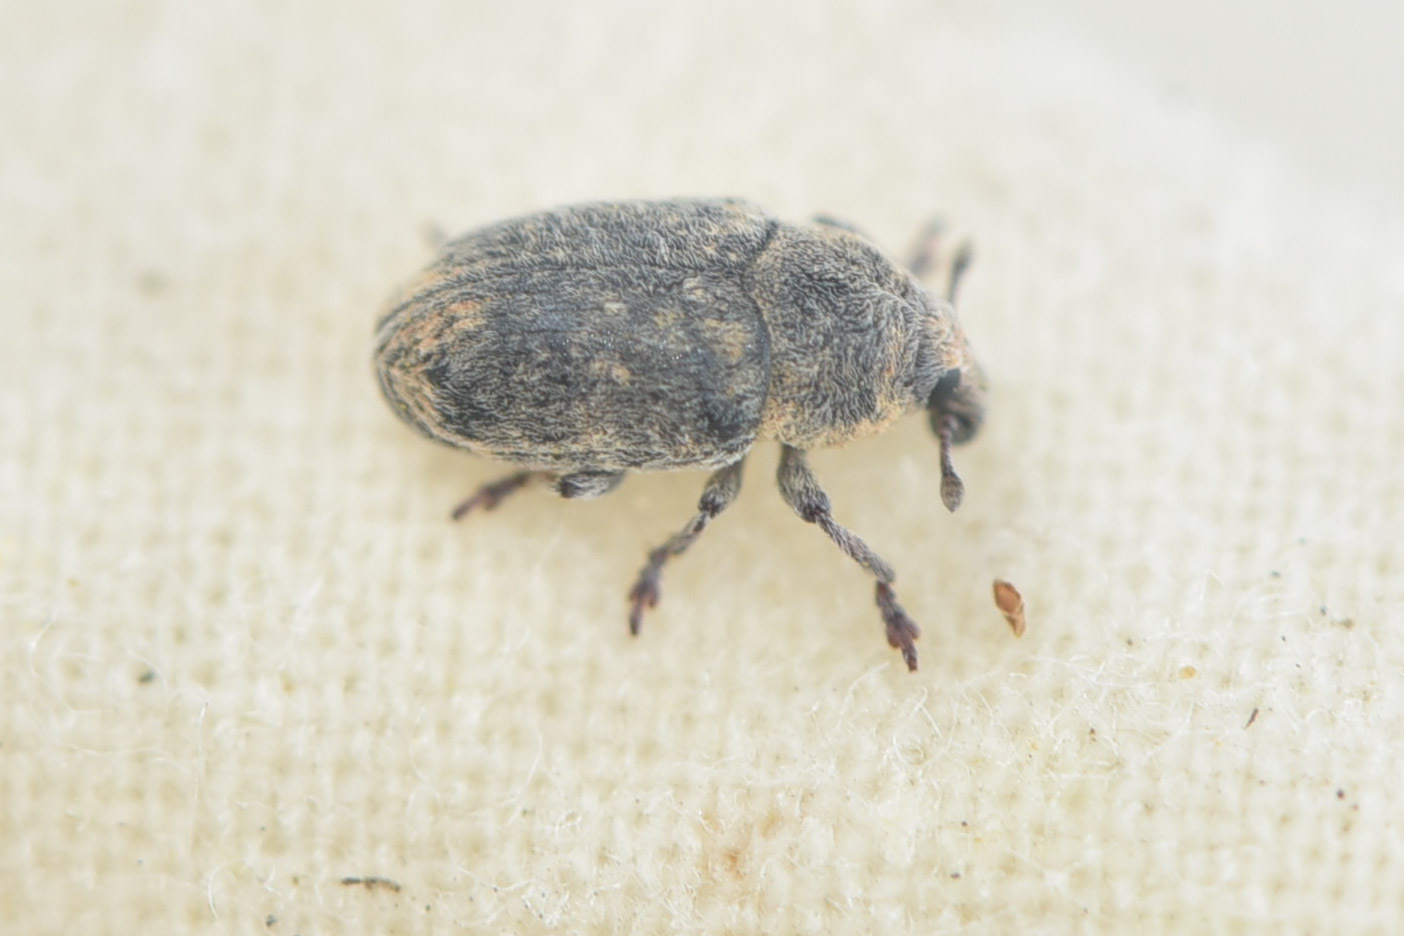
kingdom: Animalia
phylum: Arthropoda
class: Insecta
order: Coleoptera
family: Curculionidae
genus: Larinus
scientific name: Larinus minutus
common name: Weevil
